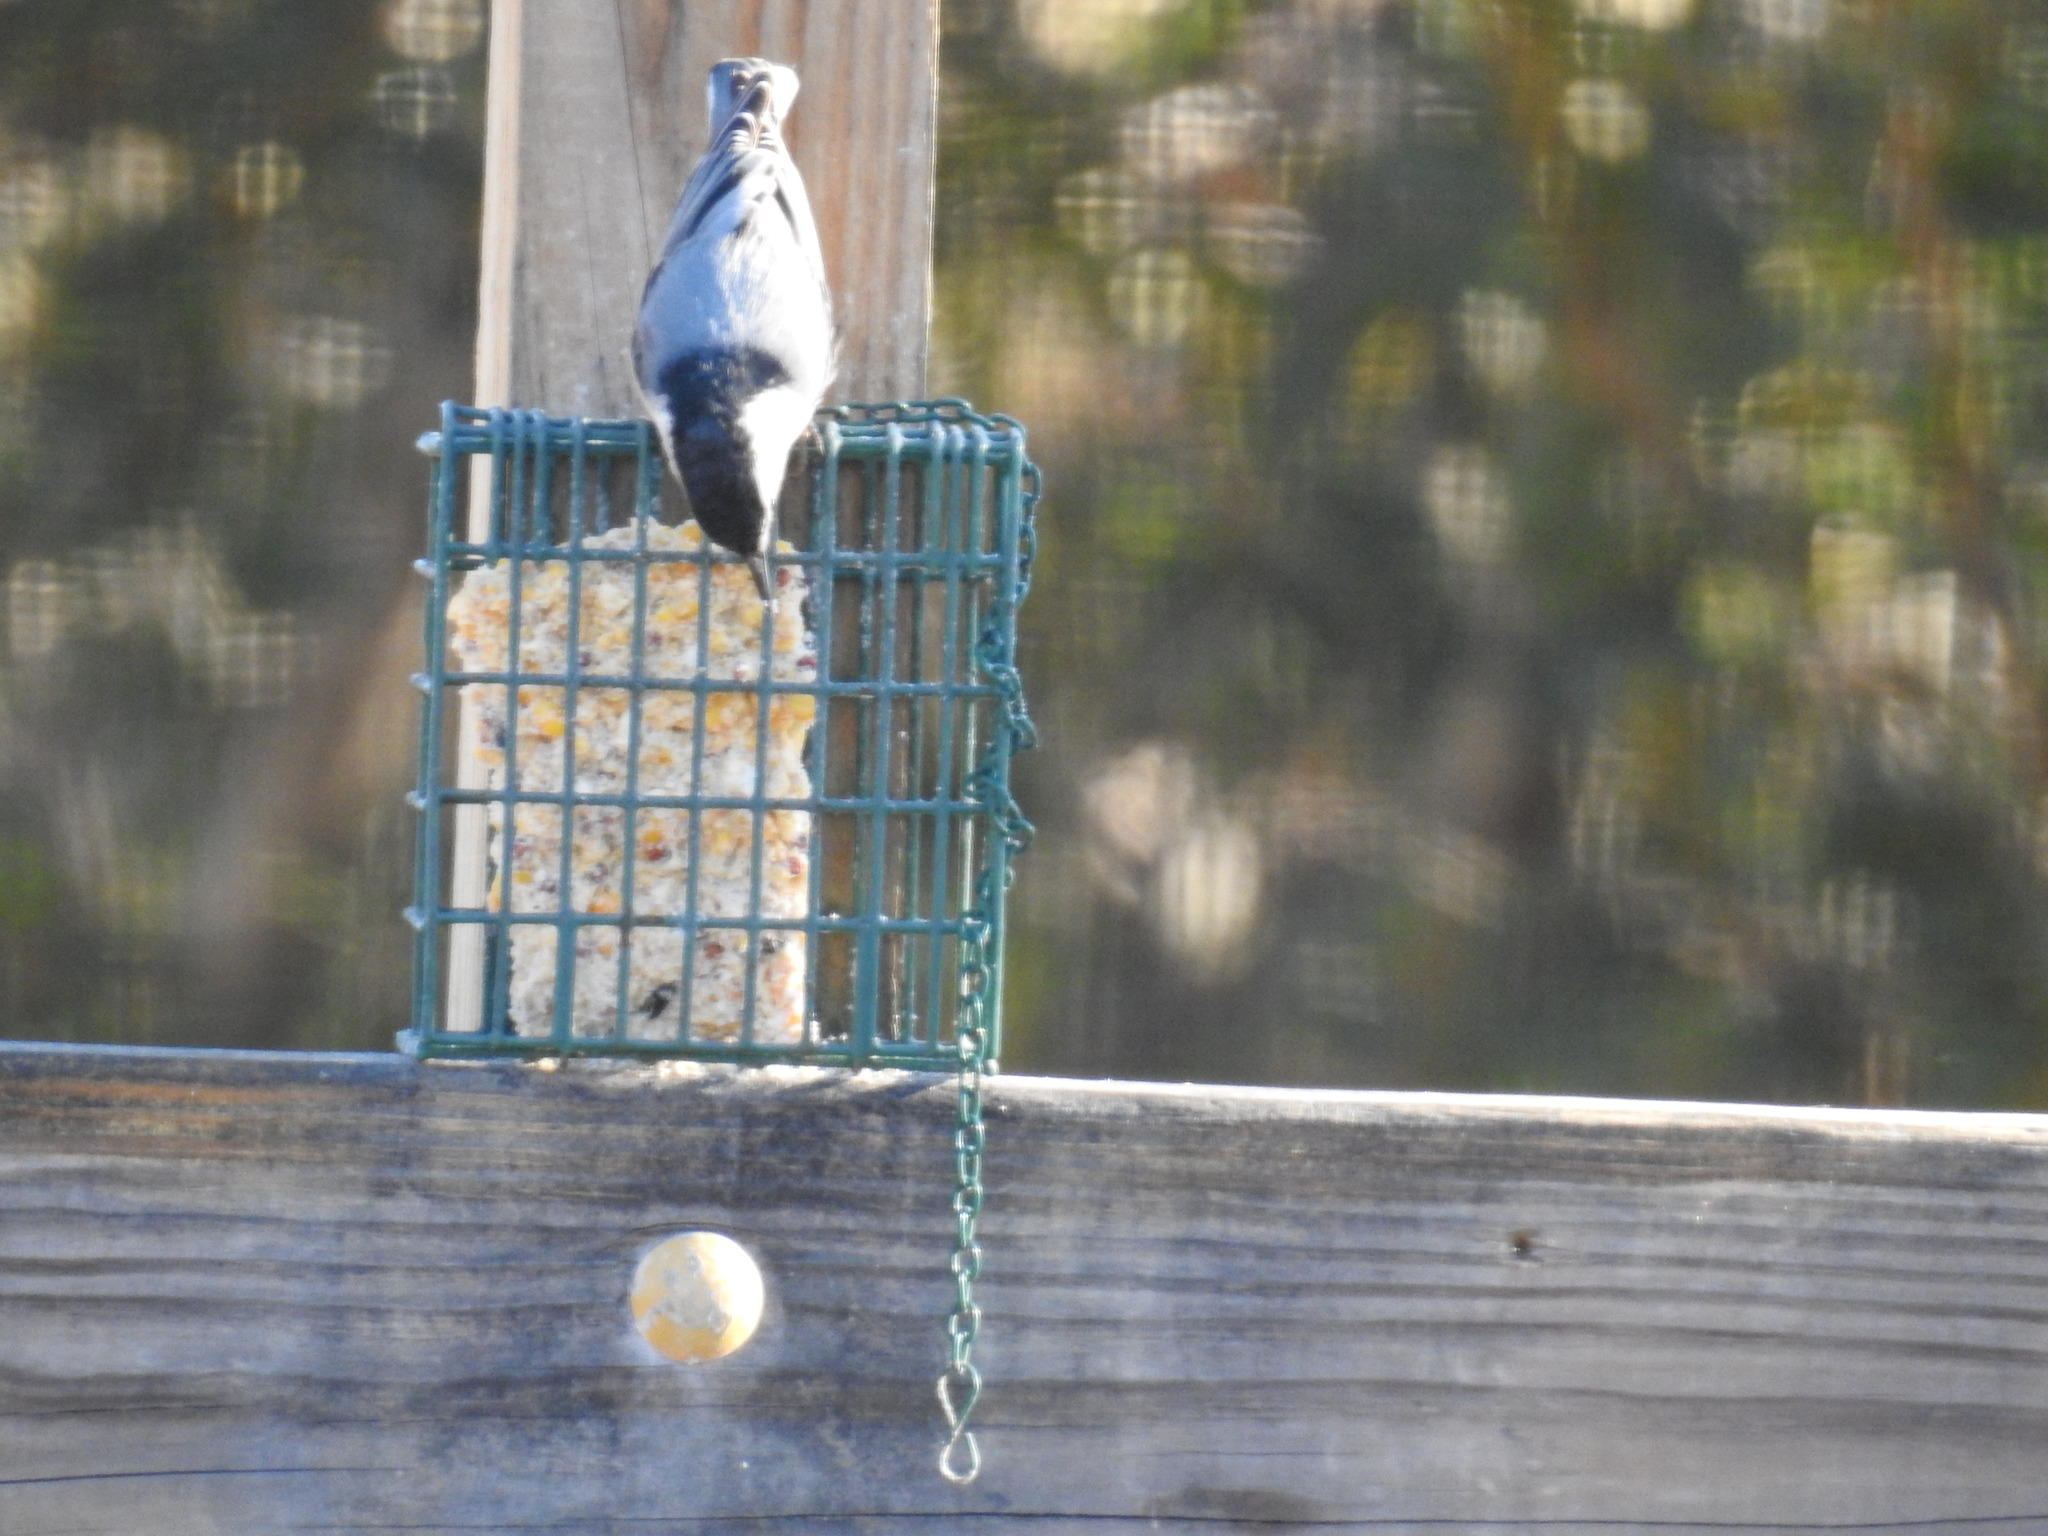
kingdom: Animalia
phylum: Chordata
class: Aves
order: Passeriformes
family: Sittidae
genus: Sitta
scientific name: Sitta carolinensis
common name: White-breasted nuthatch
